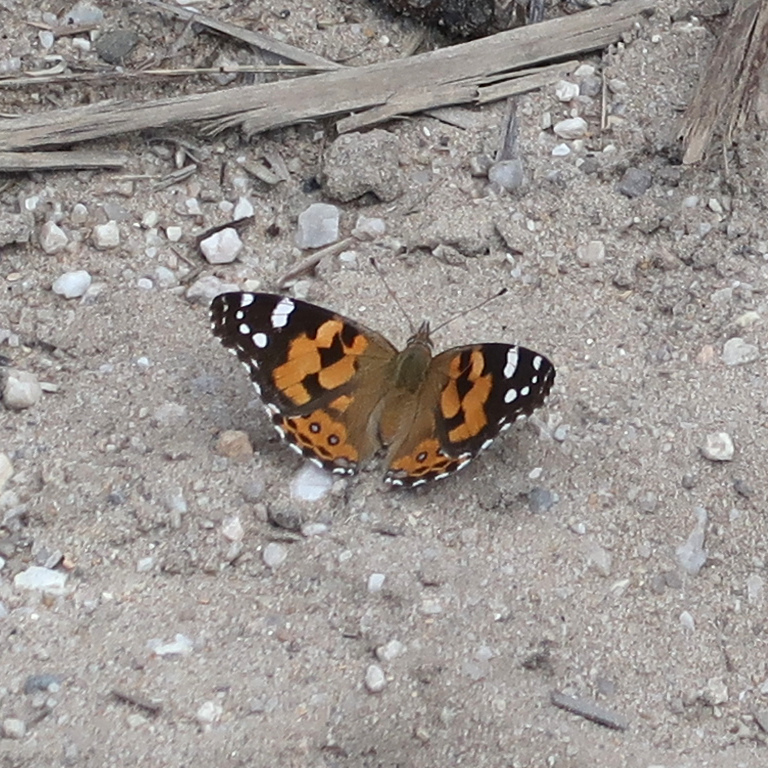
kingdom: Animalia
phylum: Arthropoda
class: Insecta
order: Lepidoptera
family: Nymphalidae
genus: Vanessa
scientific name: Vanessa kershawi
